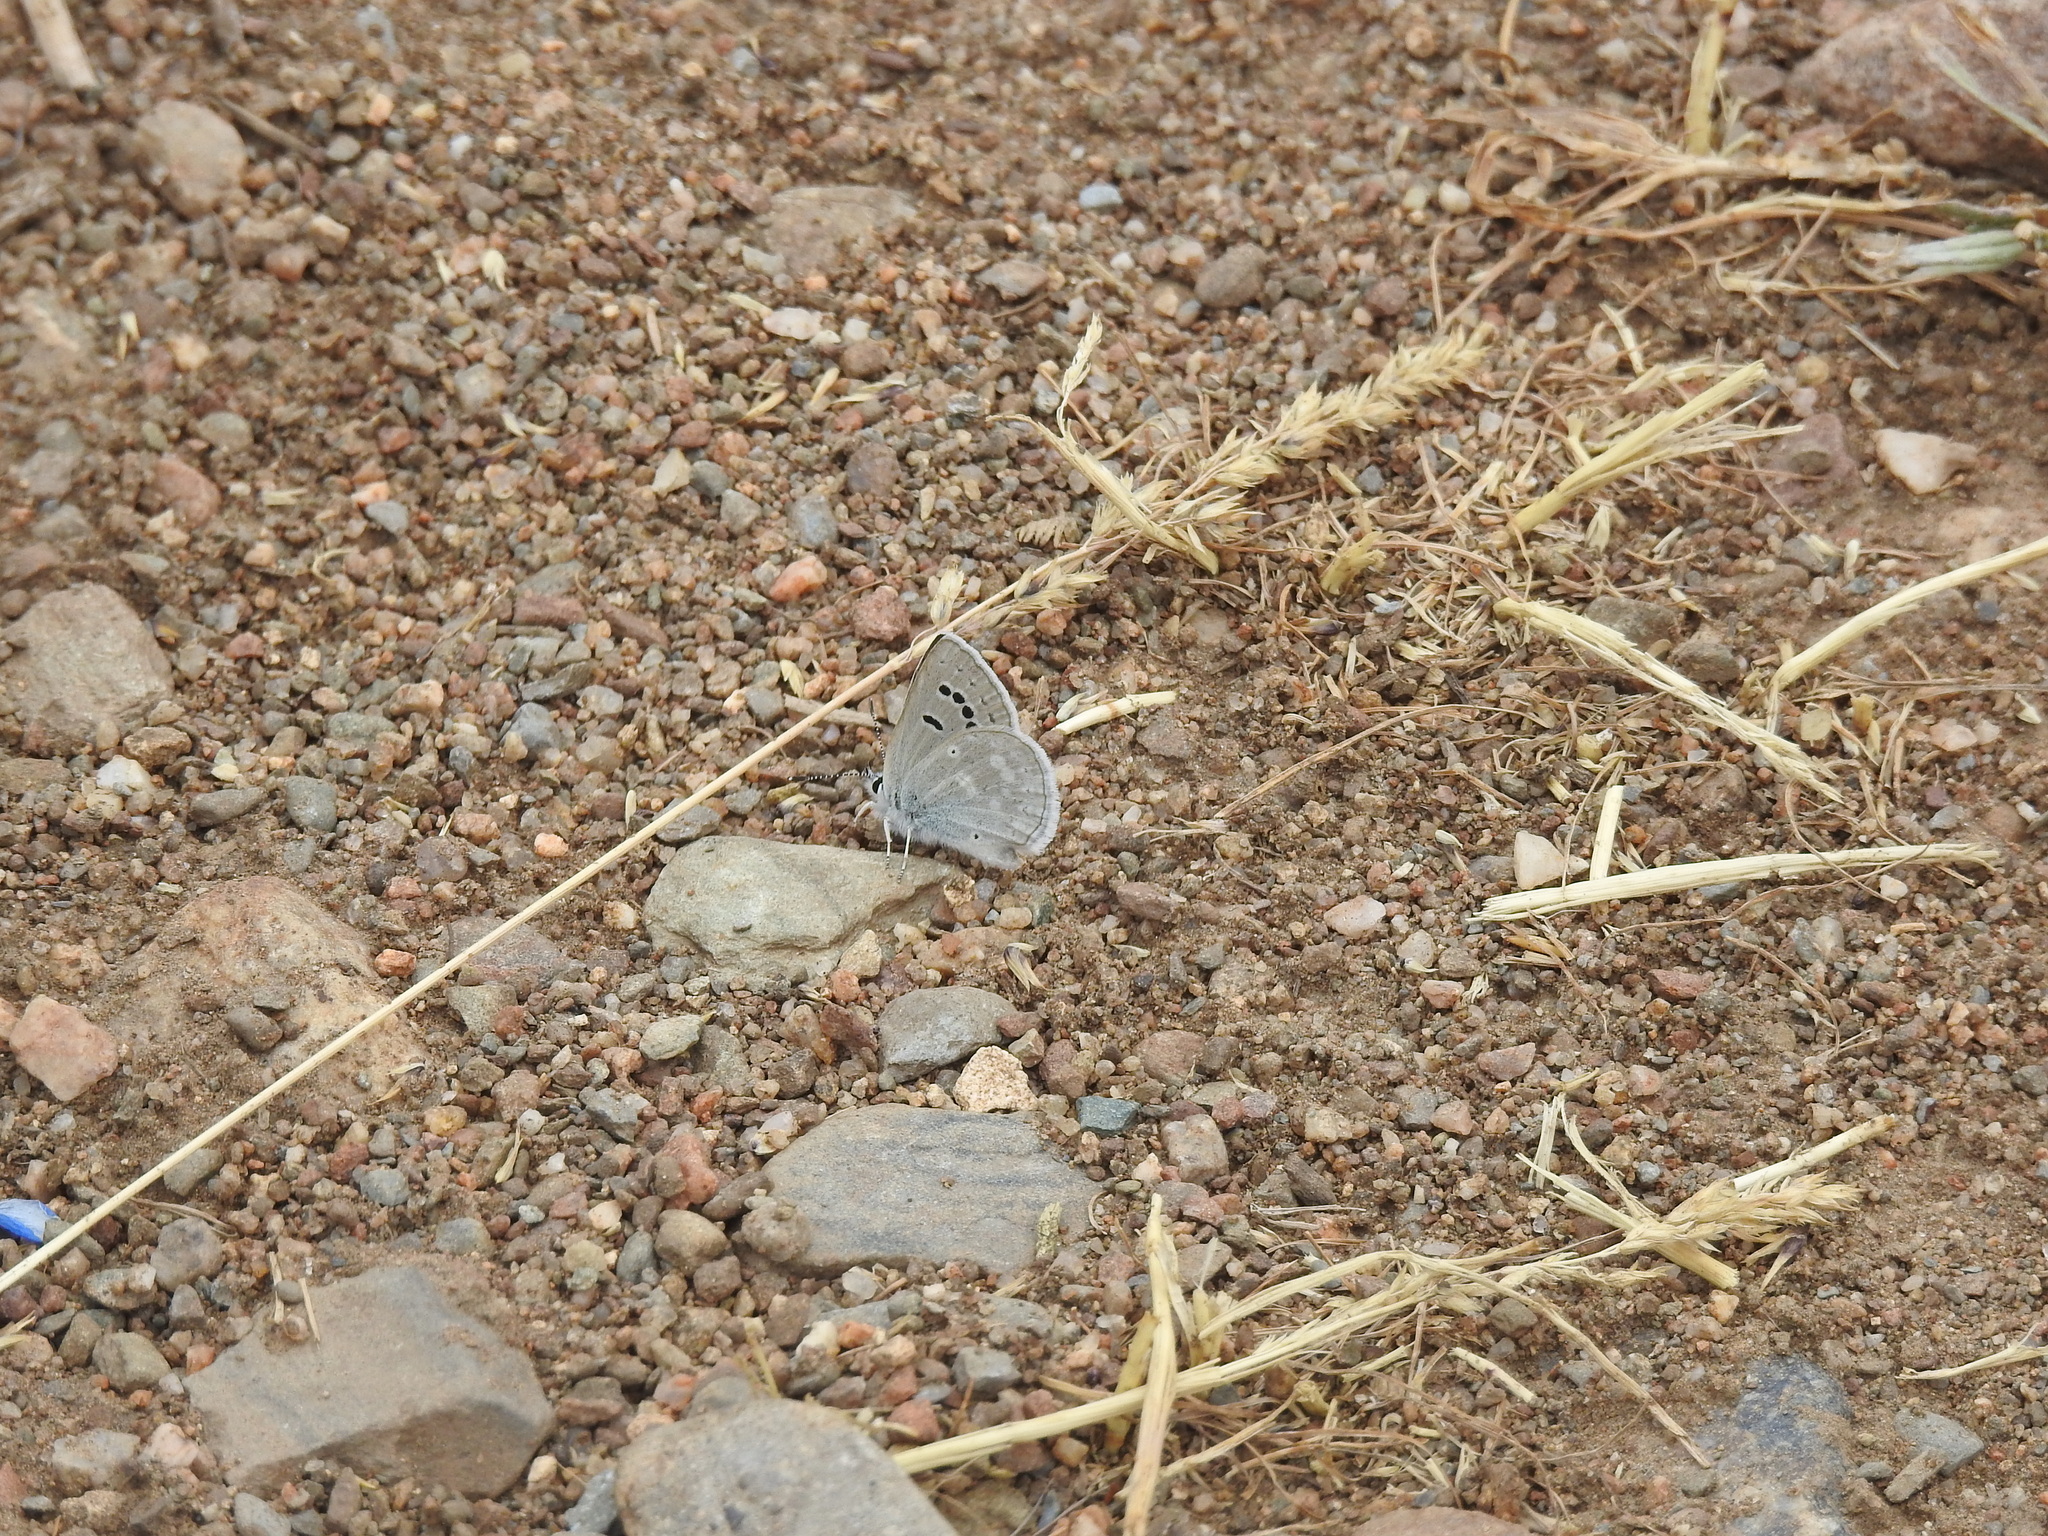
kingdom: Animalia
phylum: Arthropoda
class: Insecta
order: Lepidoptera
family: Lycaenidae
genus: Icaricia
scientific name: Icaricia icarioides
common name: Boisduval's blue
